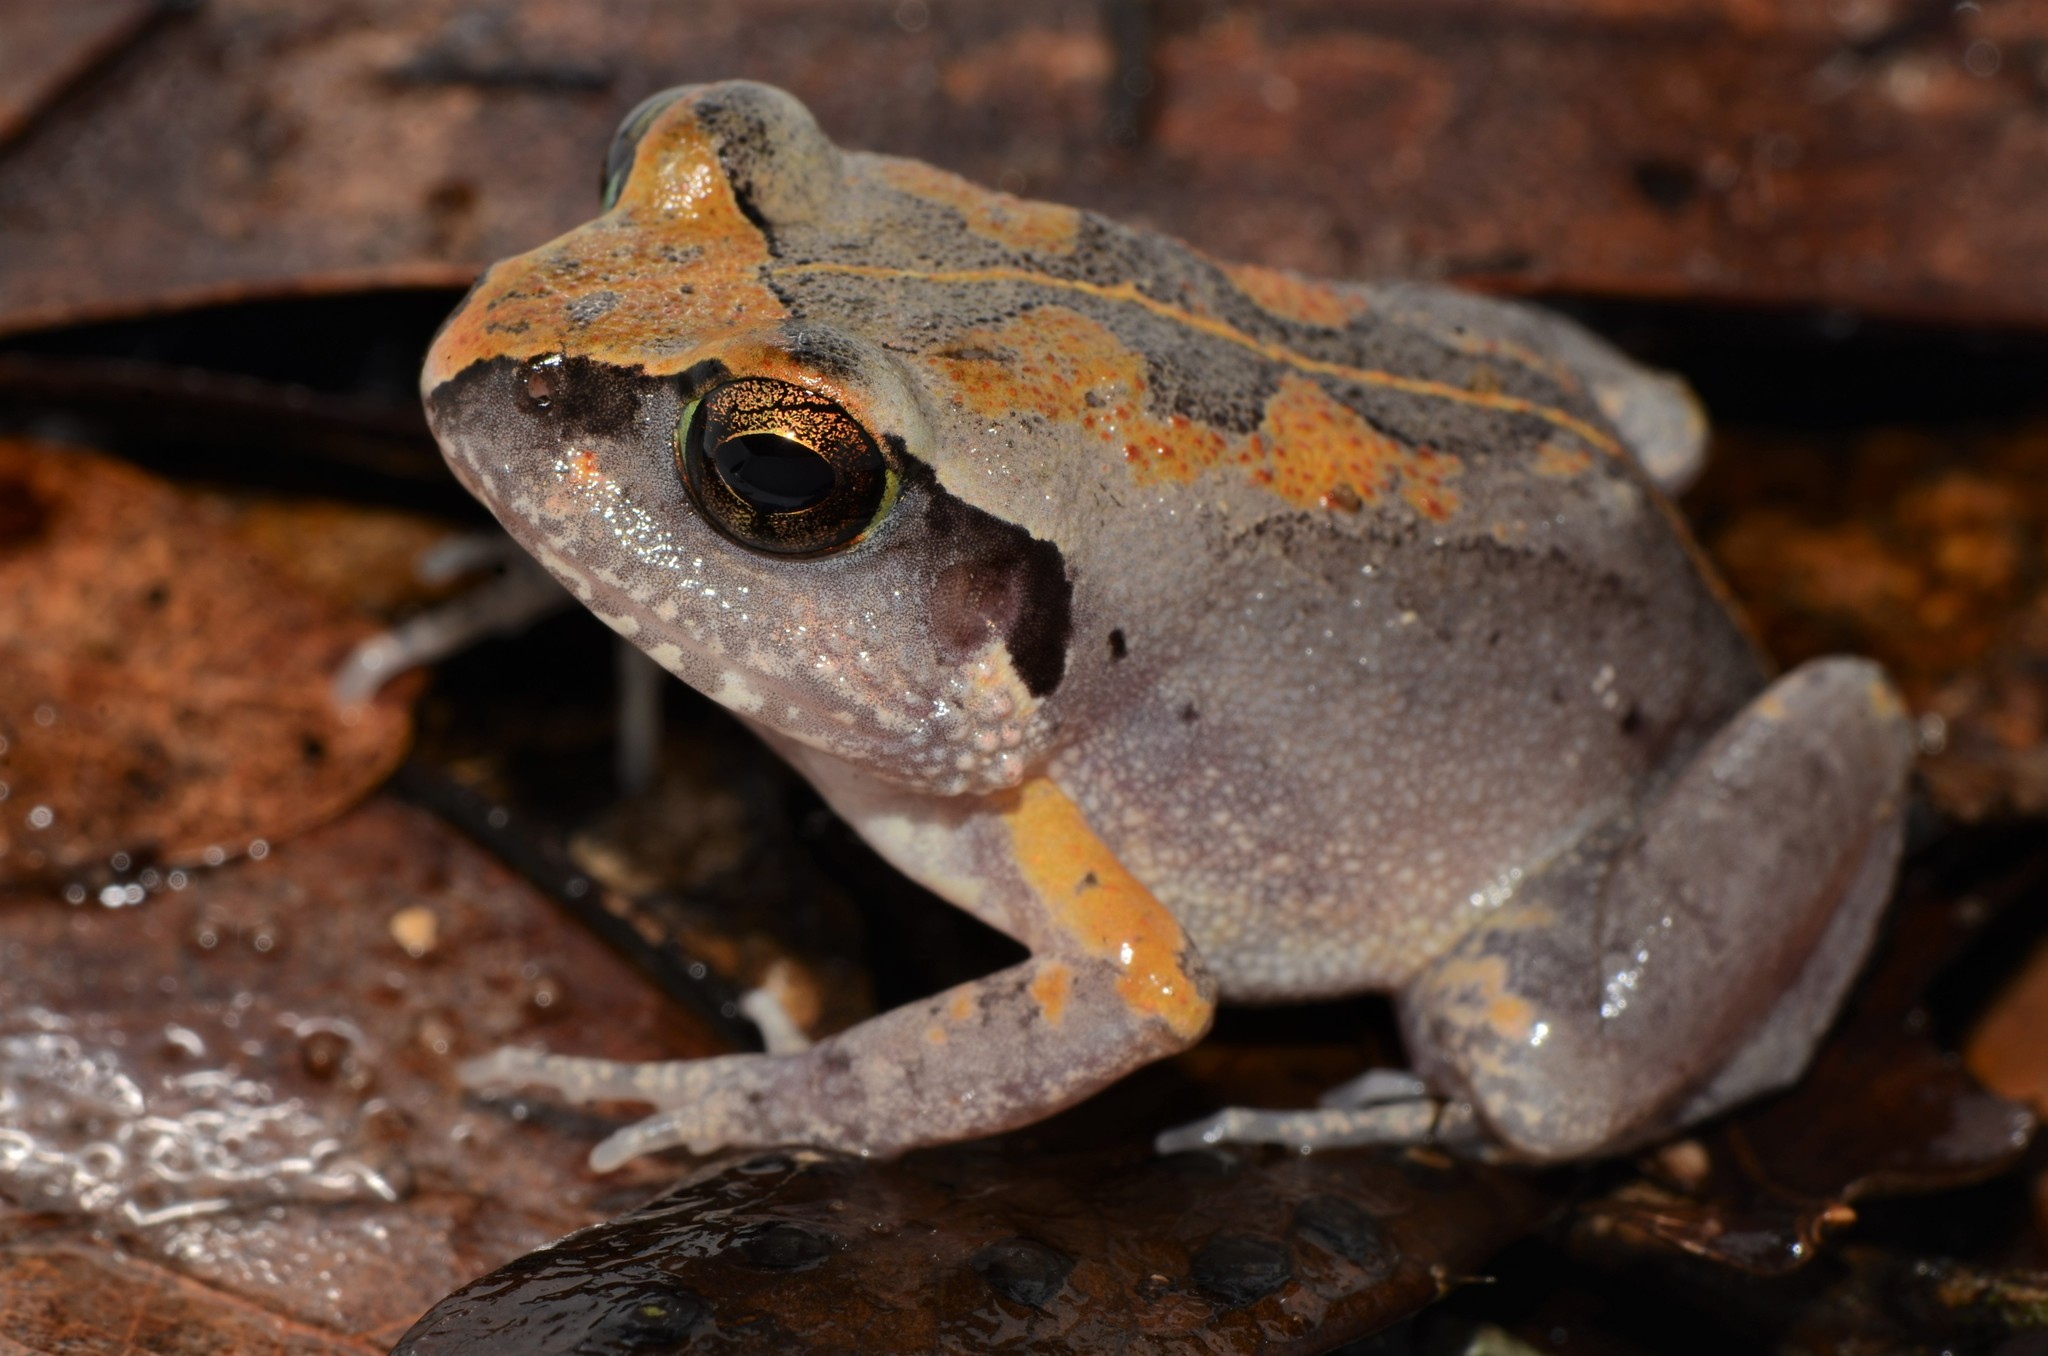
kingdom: Animalia
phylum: Chordata
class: Amphibia
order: Anura
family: Arthroleptidae
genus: Arthroleptis
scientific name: Arthroleptis stenodactylus
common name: Dune squeaker
